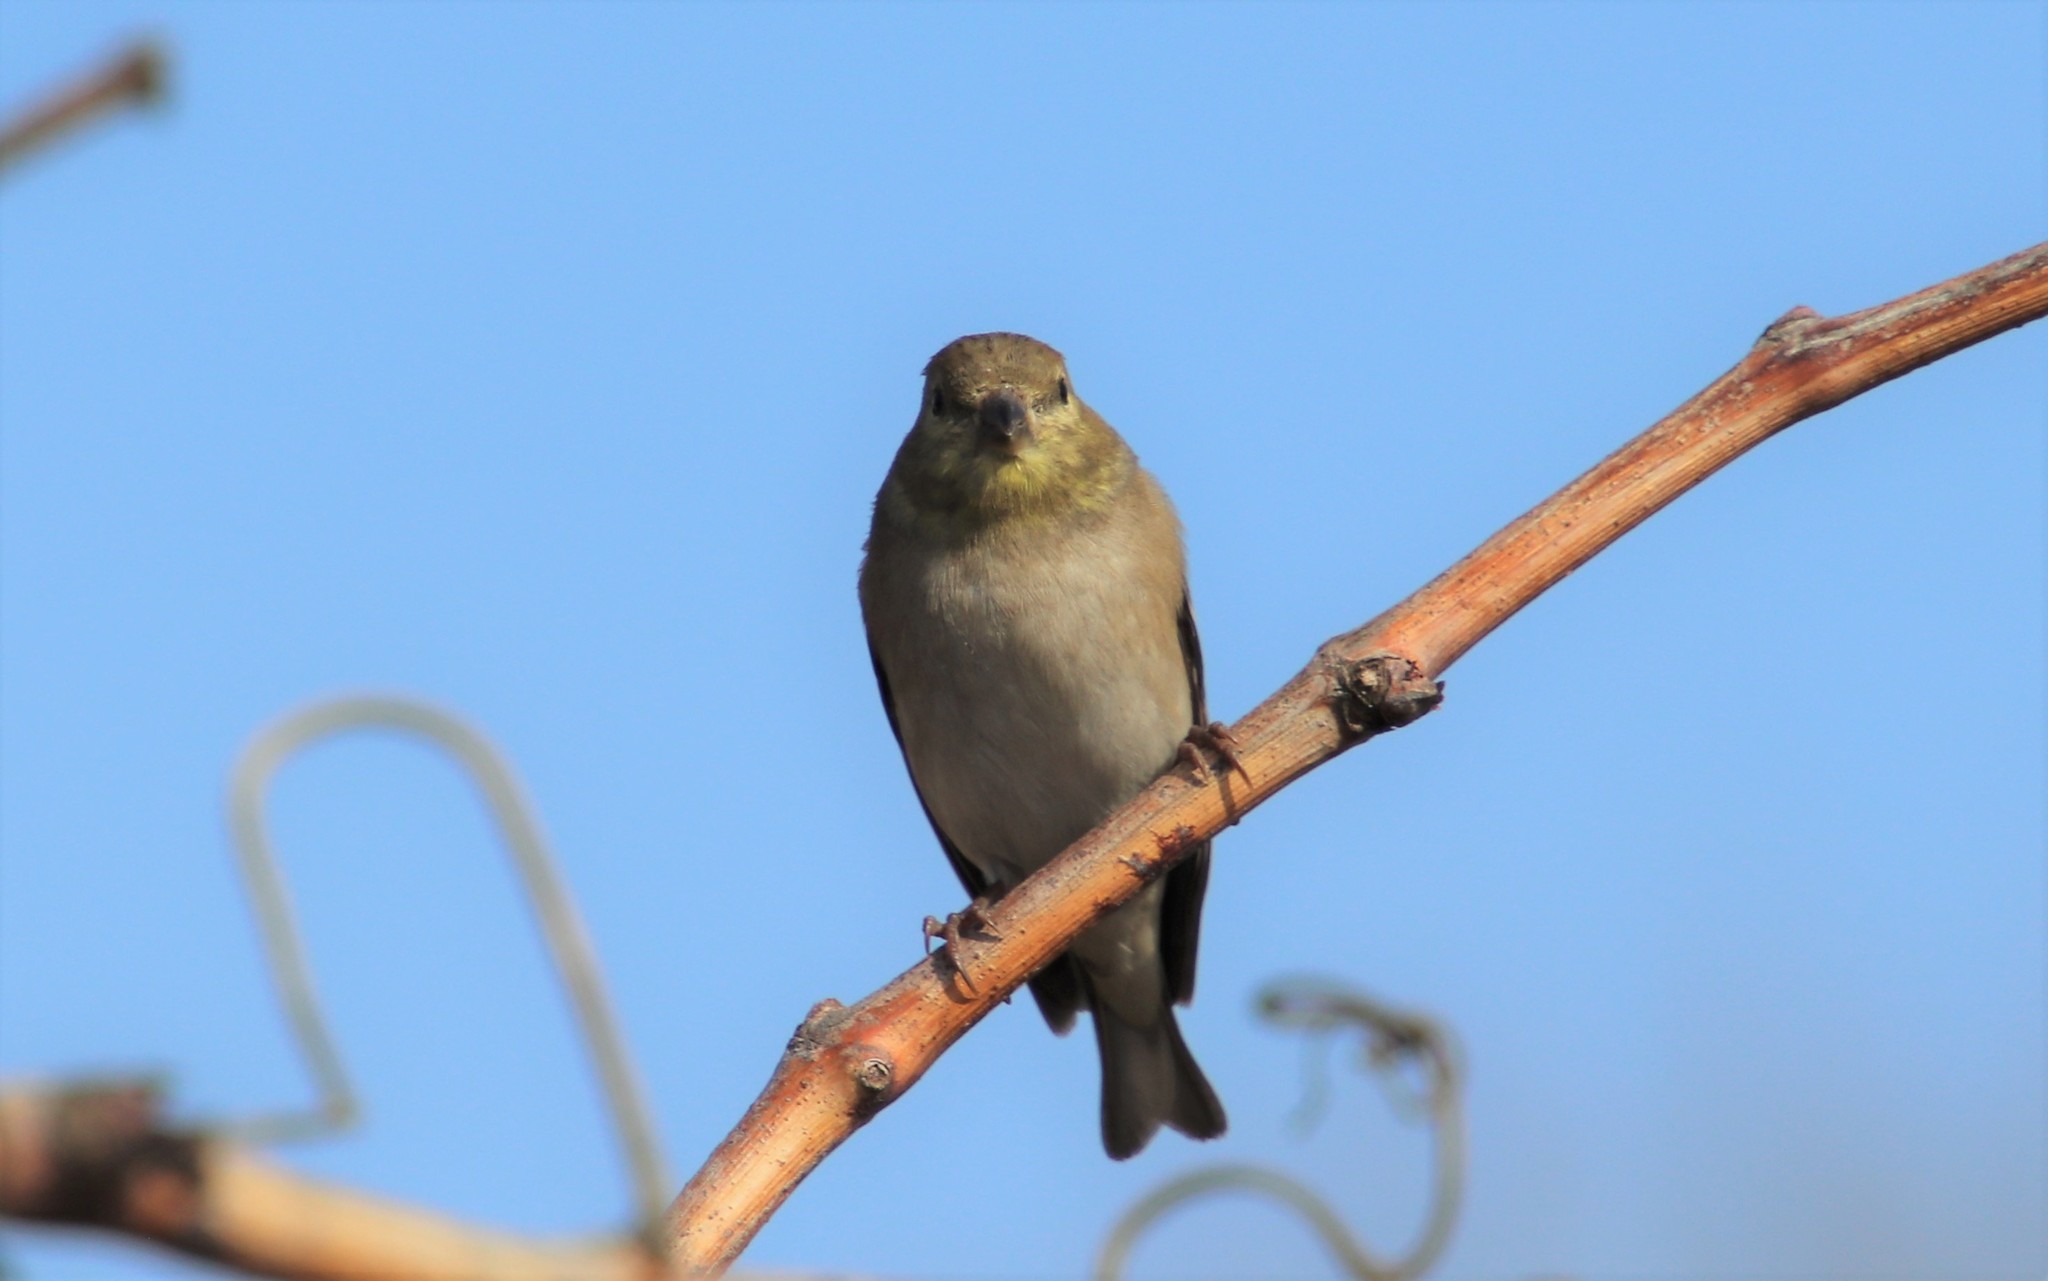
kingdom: Animalia
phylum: Chordata
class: Aves
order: Passeriformes
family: Fringillidae
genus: Spinus
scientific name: Spinus tristis
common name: American goldfinch
